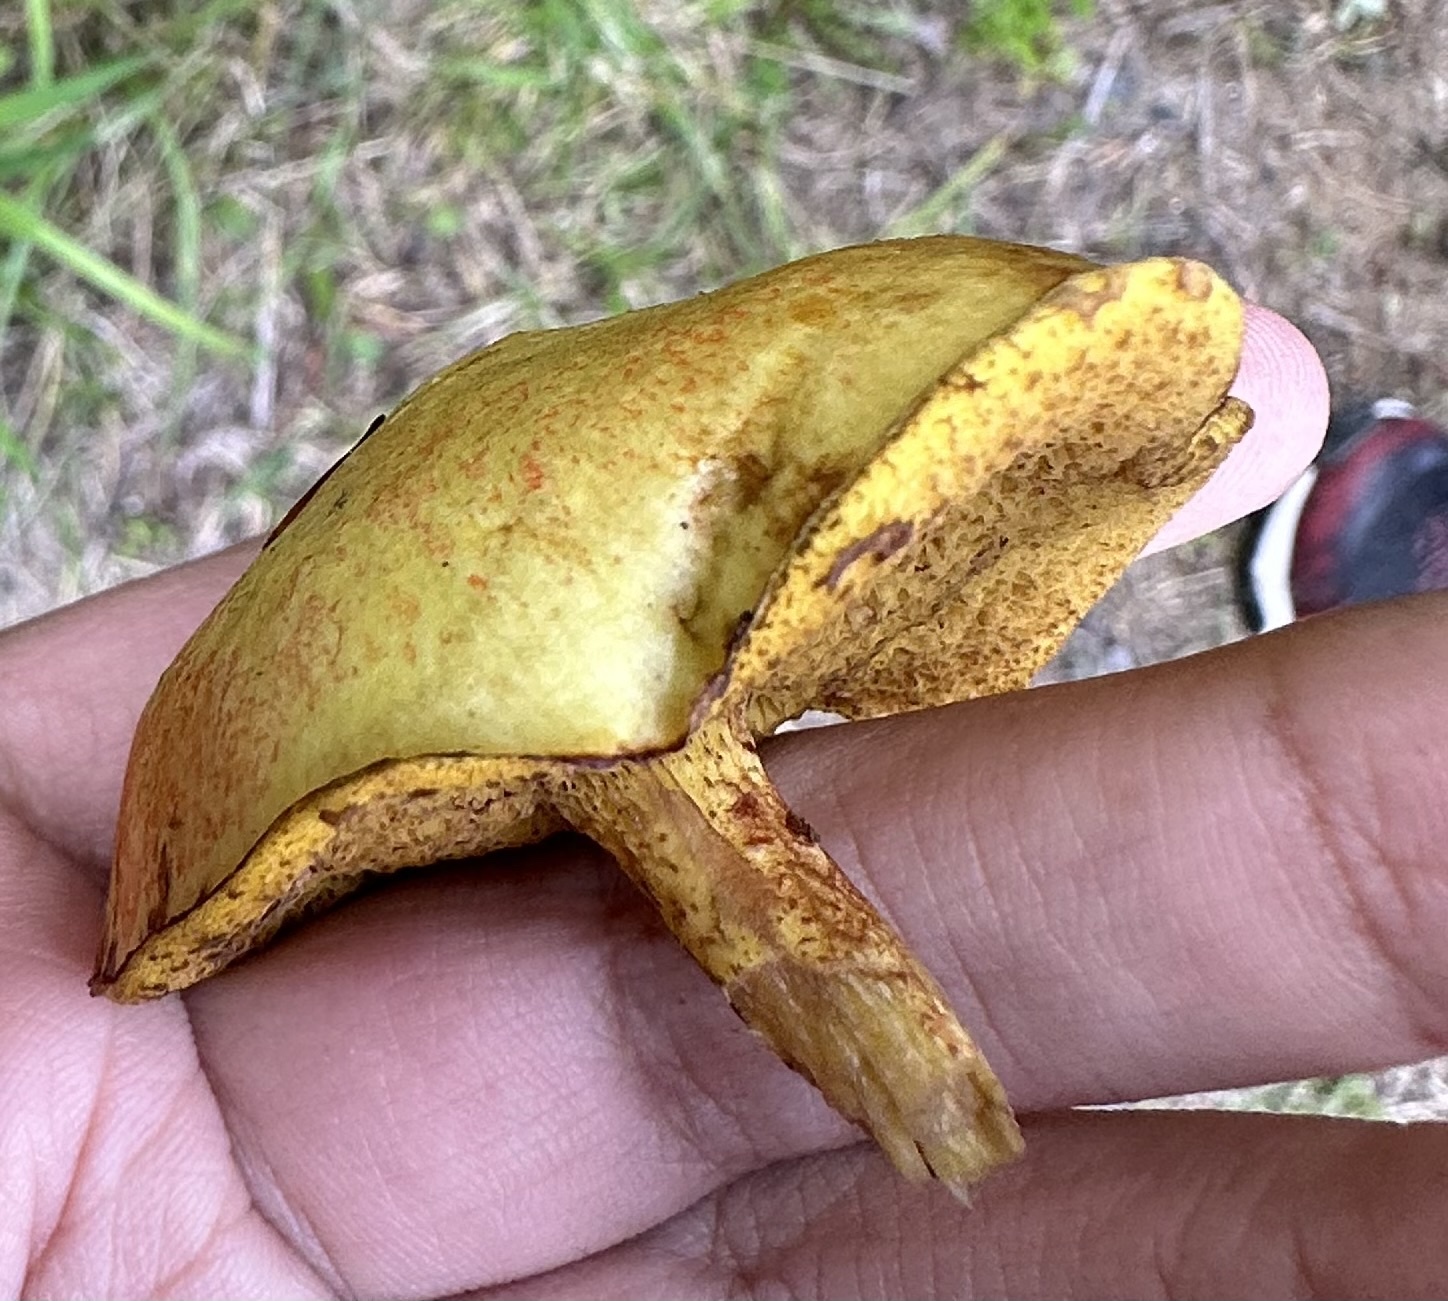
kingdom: Fungi
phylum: Basidiomycota
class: Agaricomycetes
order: Boletales
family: Suillaceae
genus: Suillus
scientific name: Suillus americanus
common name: Chicken fat mushroom
